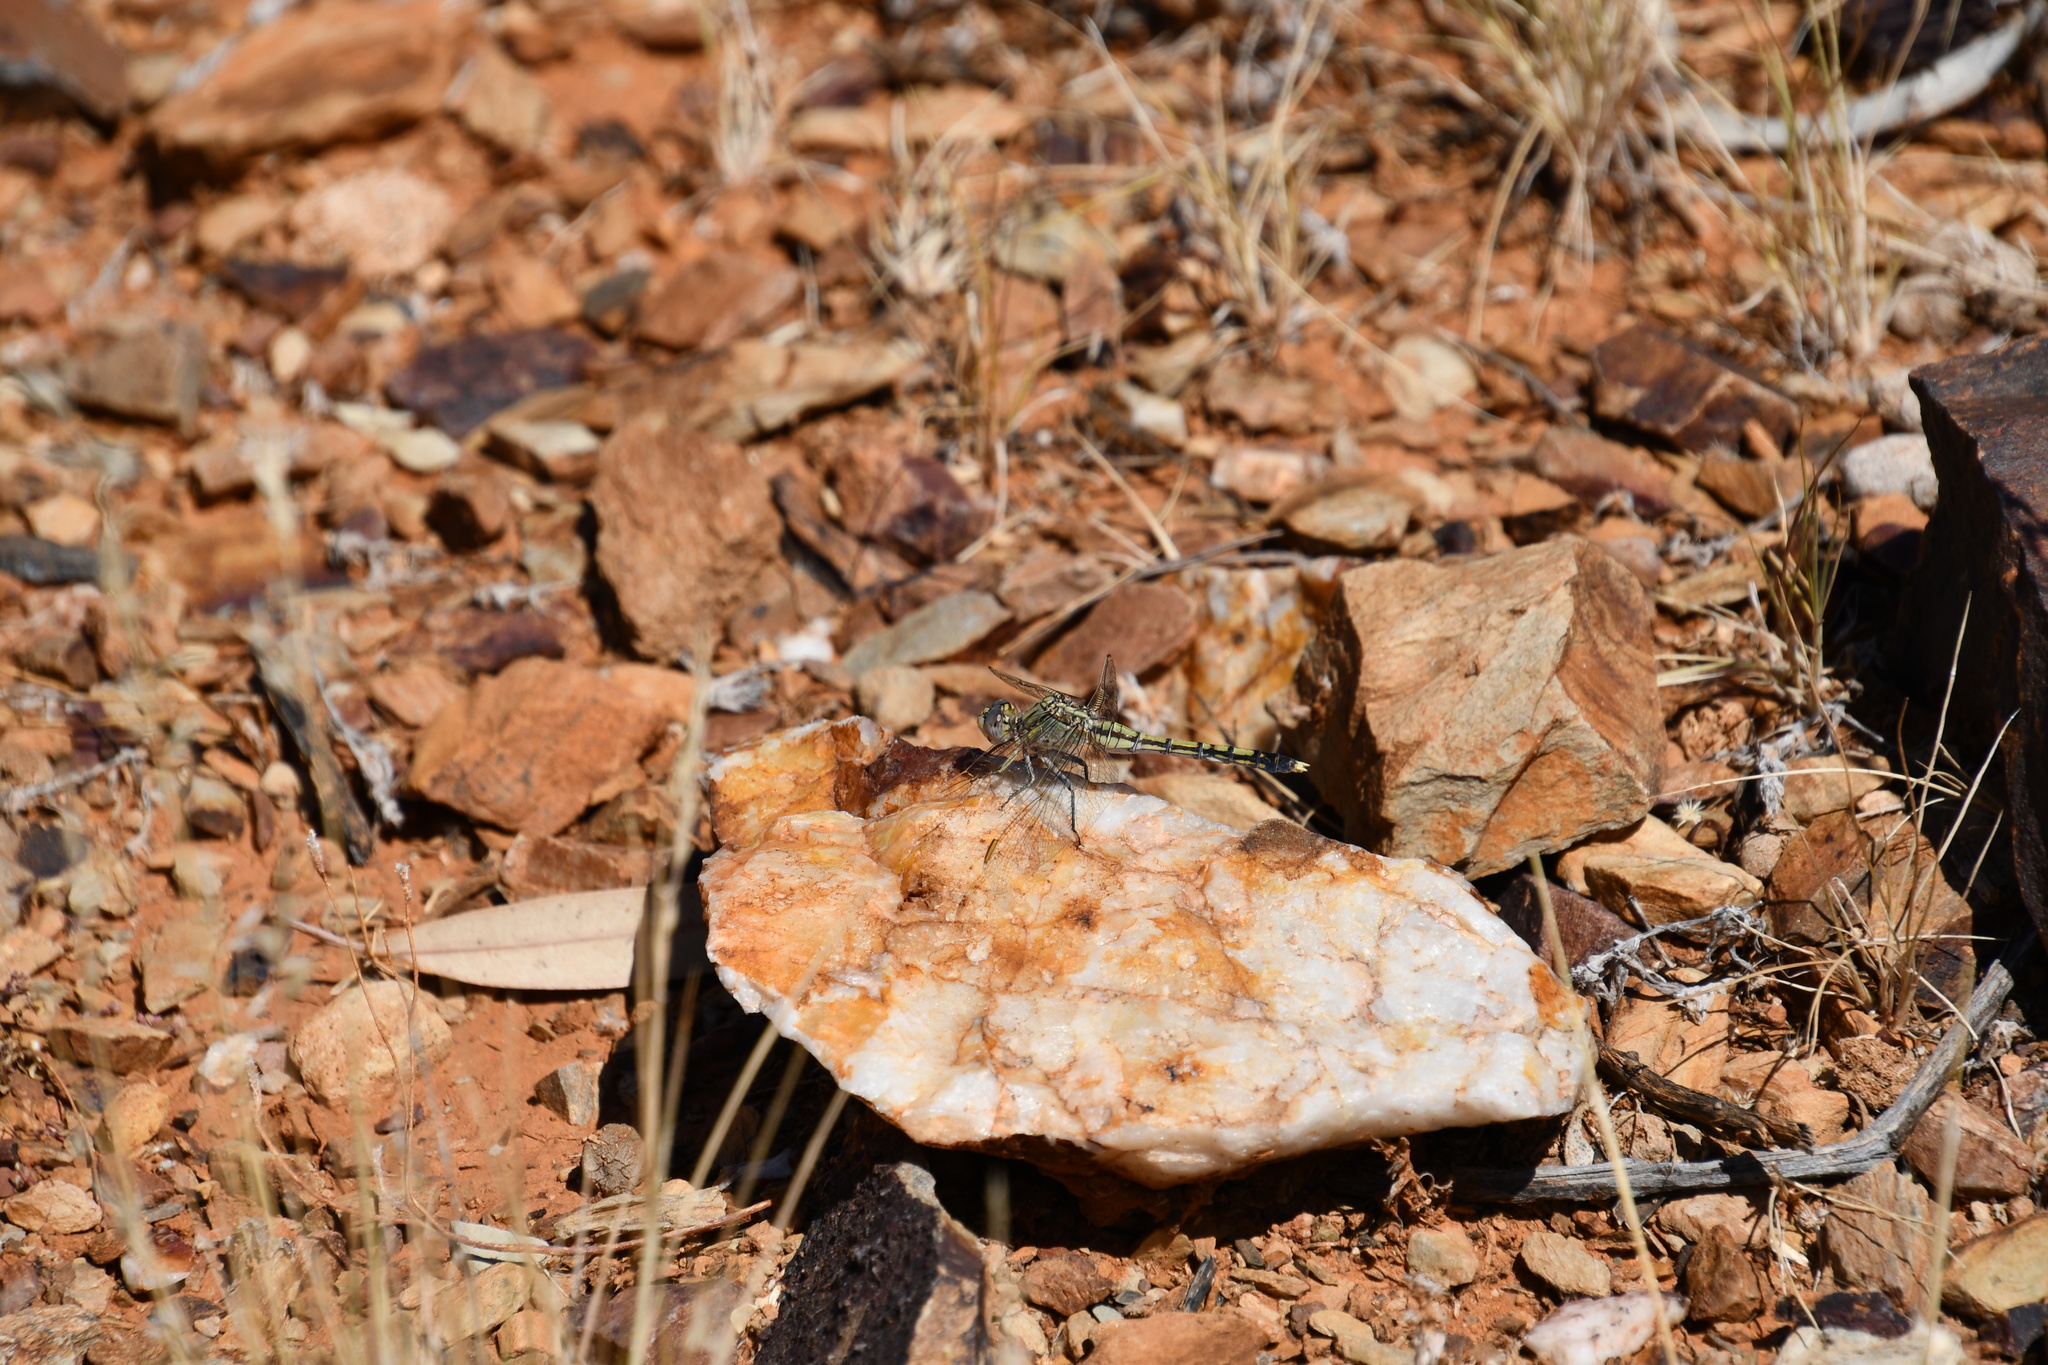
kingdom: Animalia
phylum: Arthropoda
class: Insecta
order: Odonata
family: Libellulidae
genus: Orthetrum
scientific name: Orthetrum caledonicum
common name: Blue skimmer
